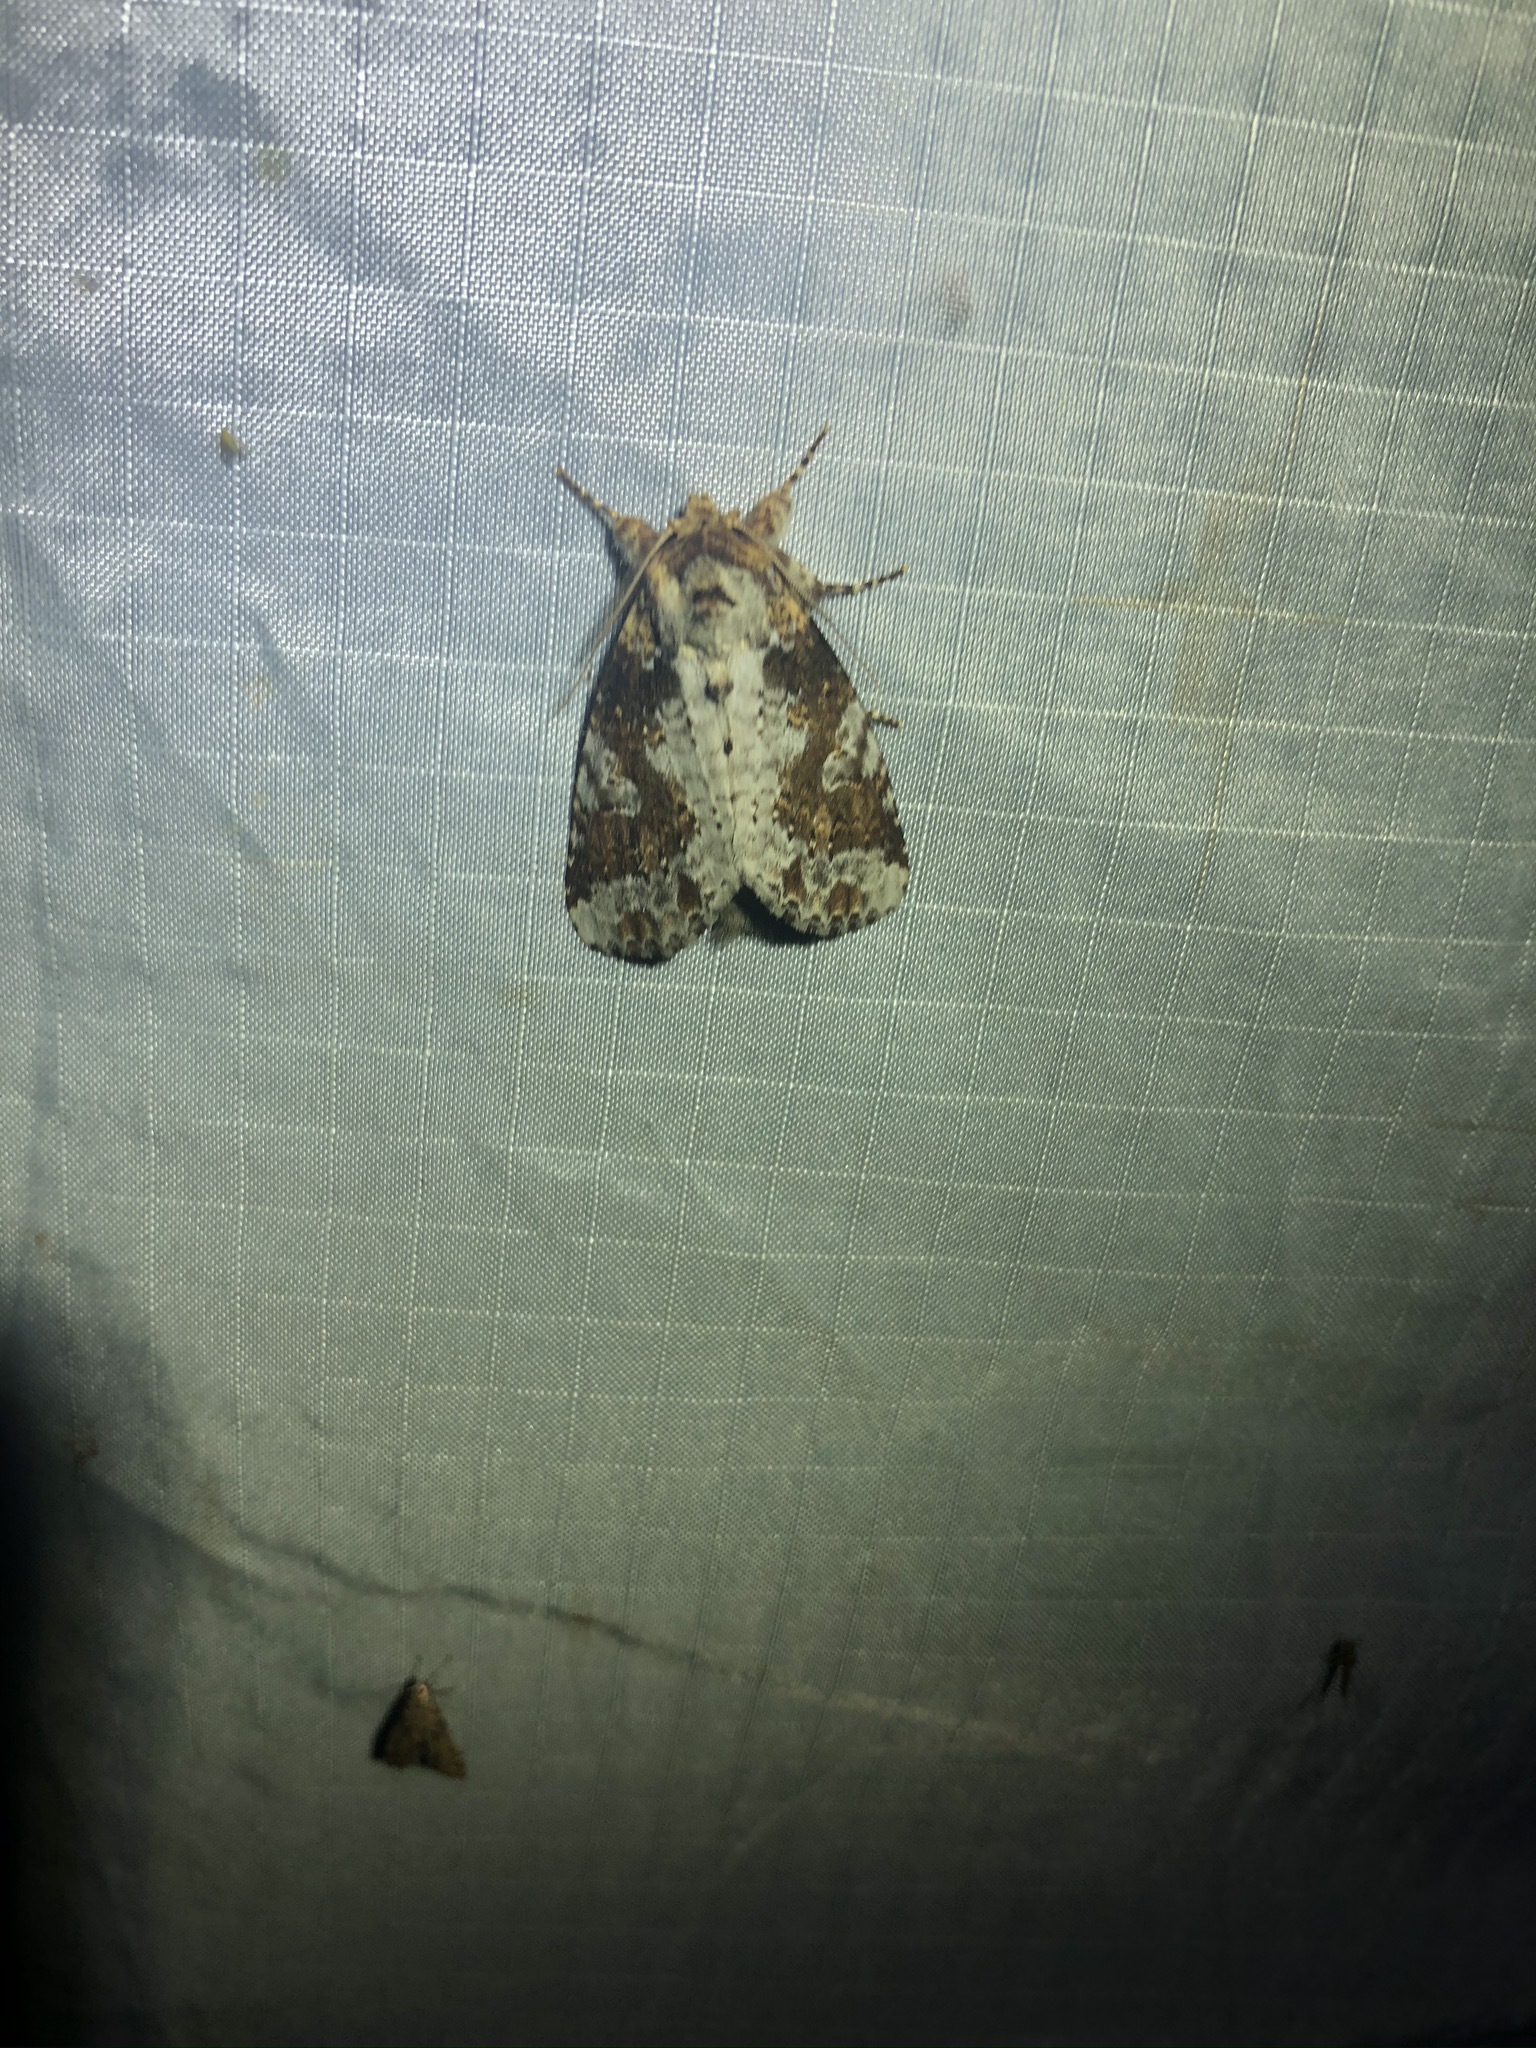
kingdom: Animalia
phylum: Arthropoda
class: Insecta
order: Lepidoptera
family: Notodontidae
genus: Disphragis
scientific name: Disphragis tharis
